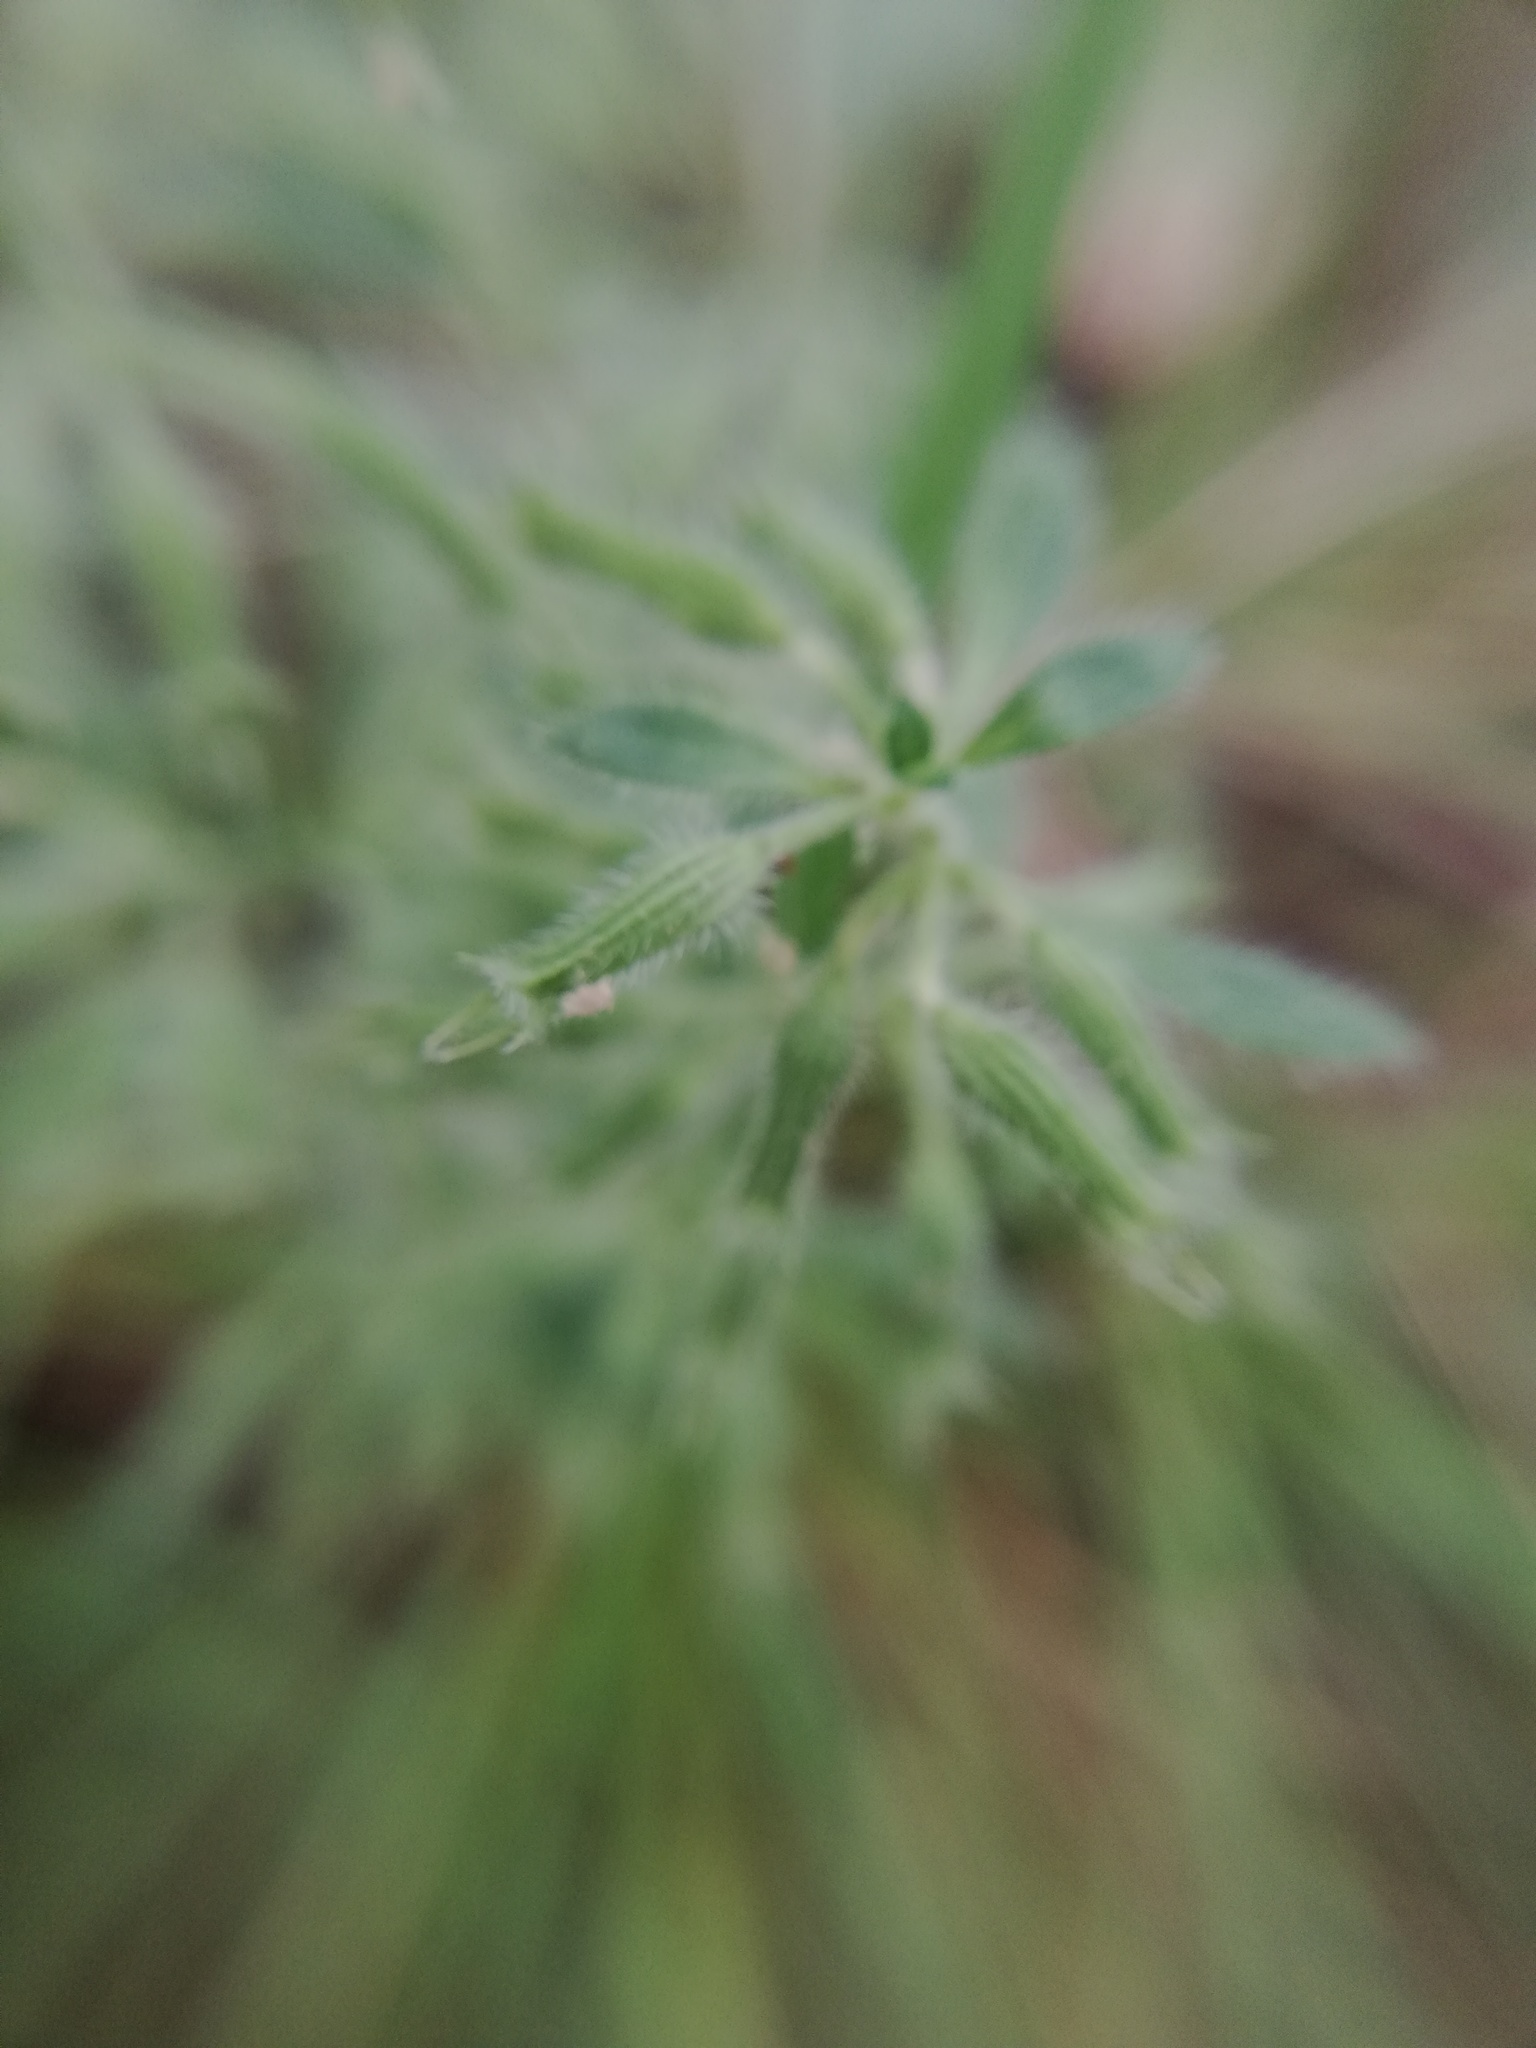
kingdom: Plantae
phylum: Tracheophyta
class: Magnoliopsida
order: Lamiales
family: Lamiaceae
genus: Hedeoma
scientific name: Hedeoma costata
